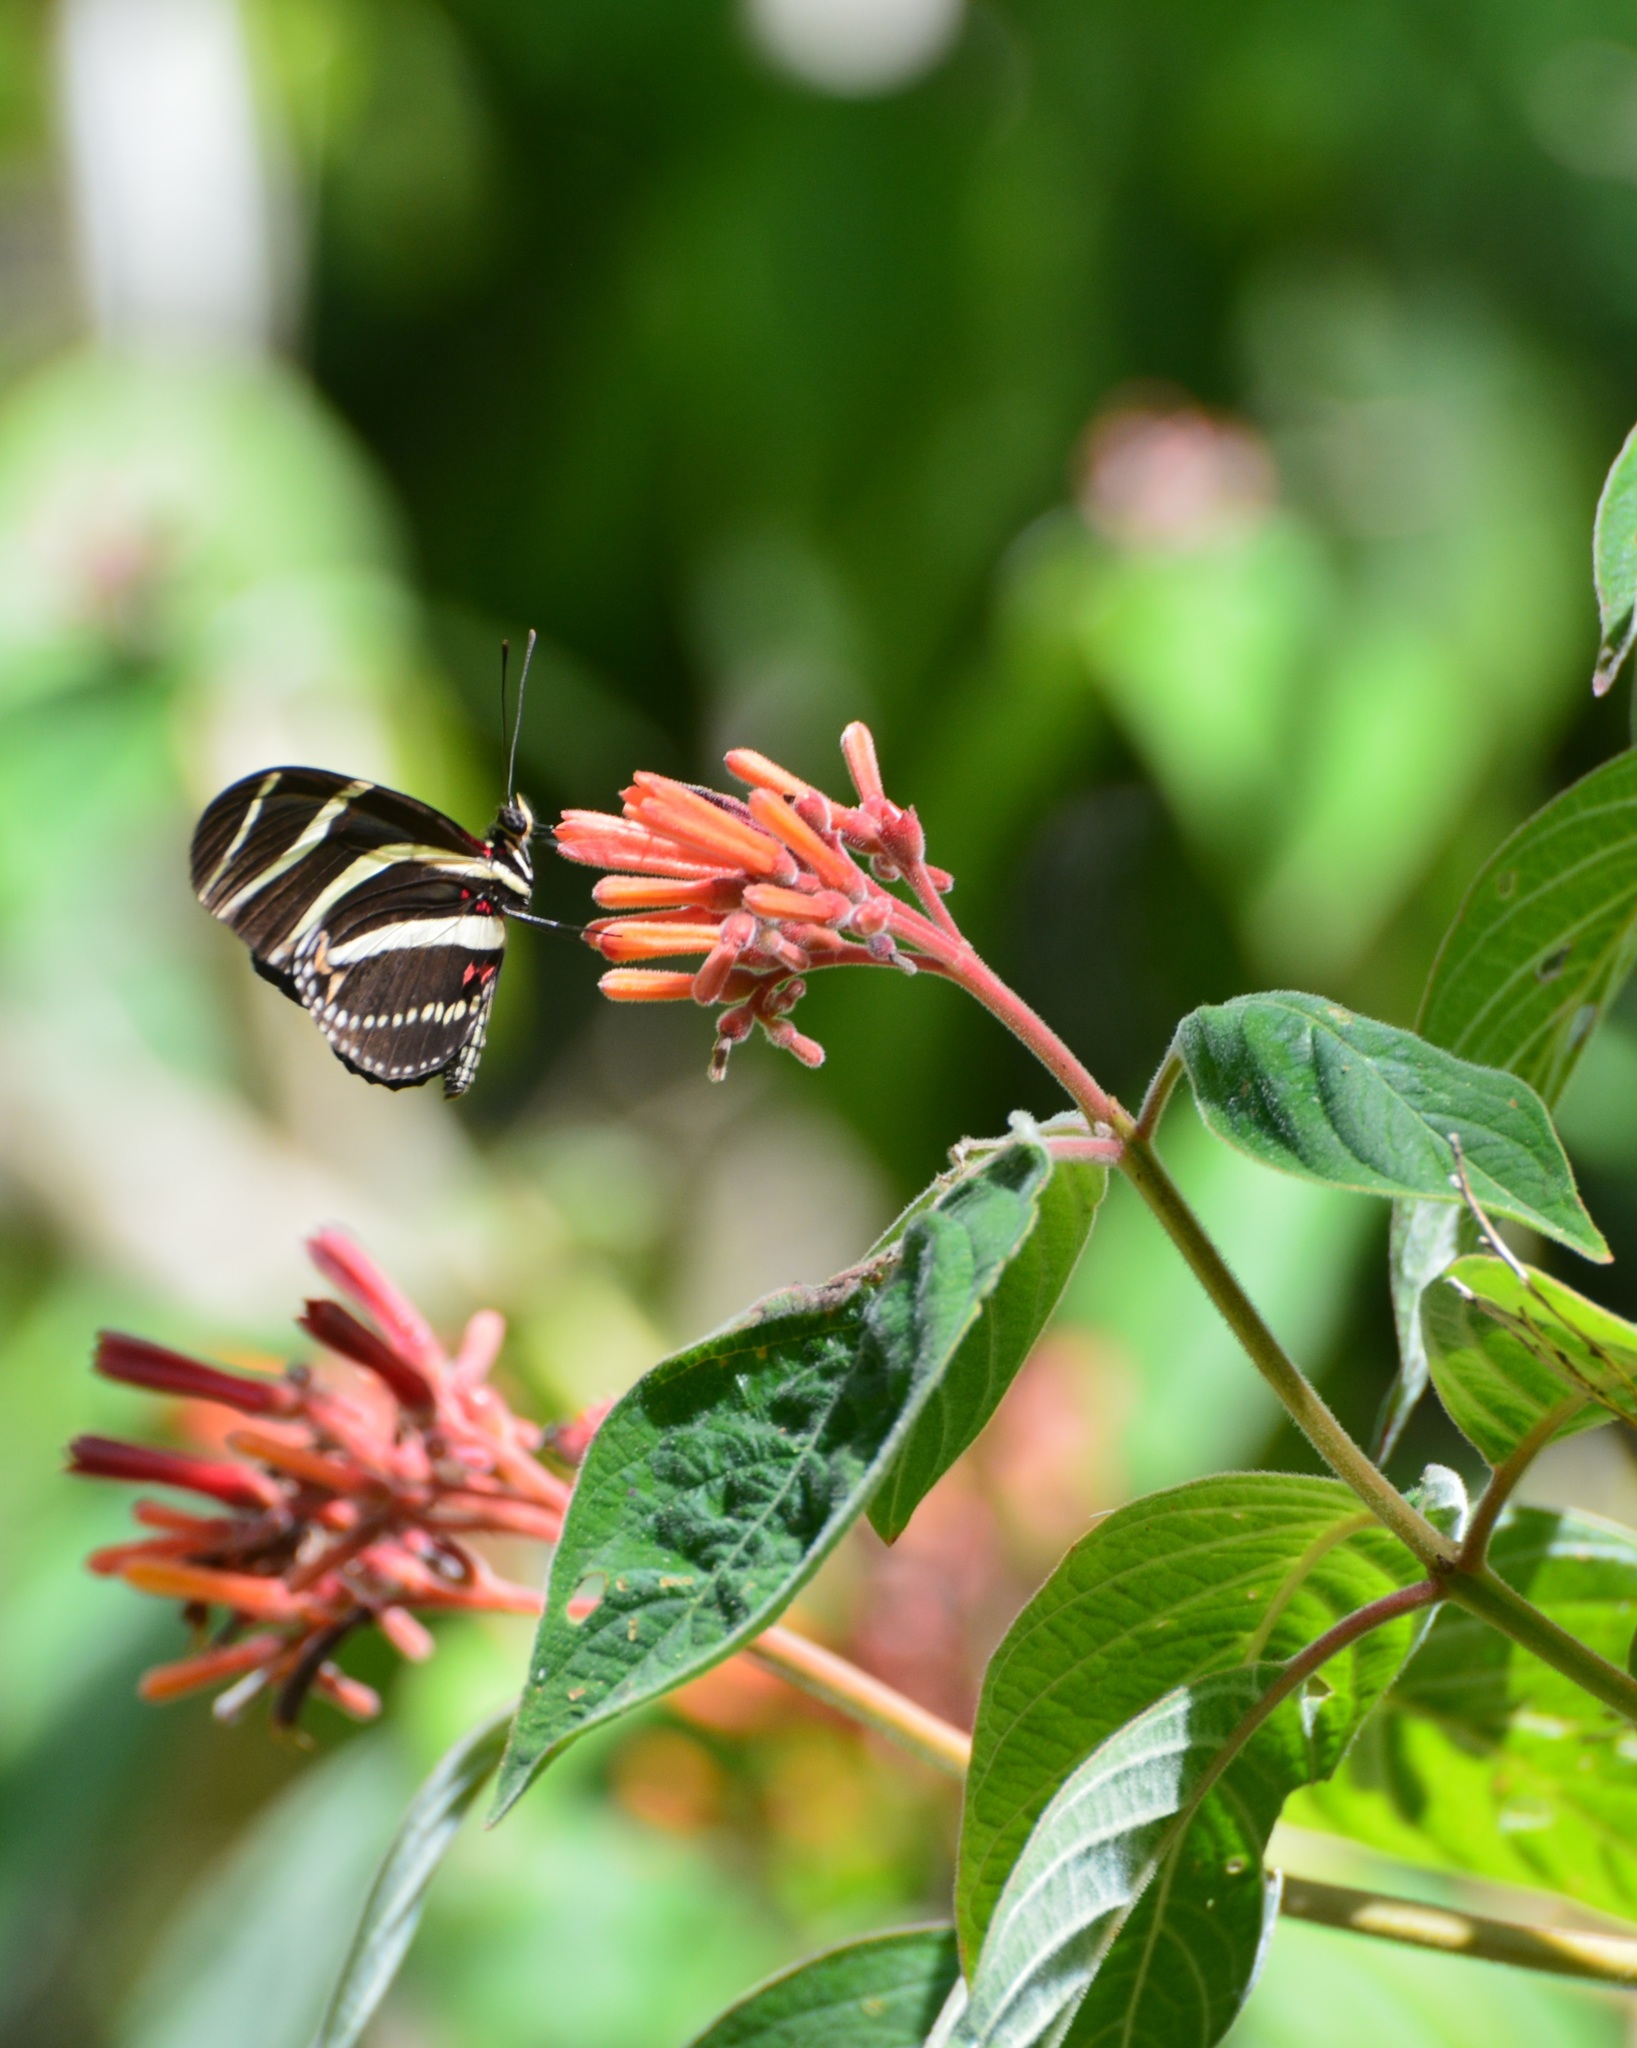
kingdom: Animalia
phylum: Arthropoda
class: Insecta
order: Lepidoptera
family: Nymphalidae
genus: Heliconius
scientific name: Heliconius charithonia
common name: Zebra long wing
